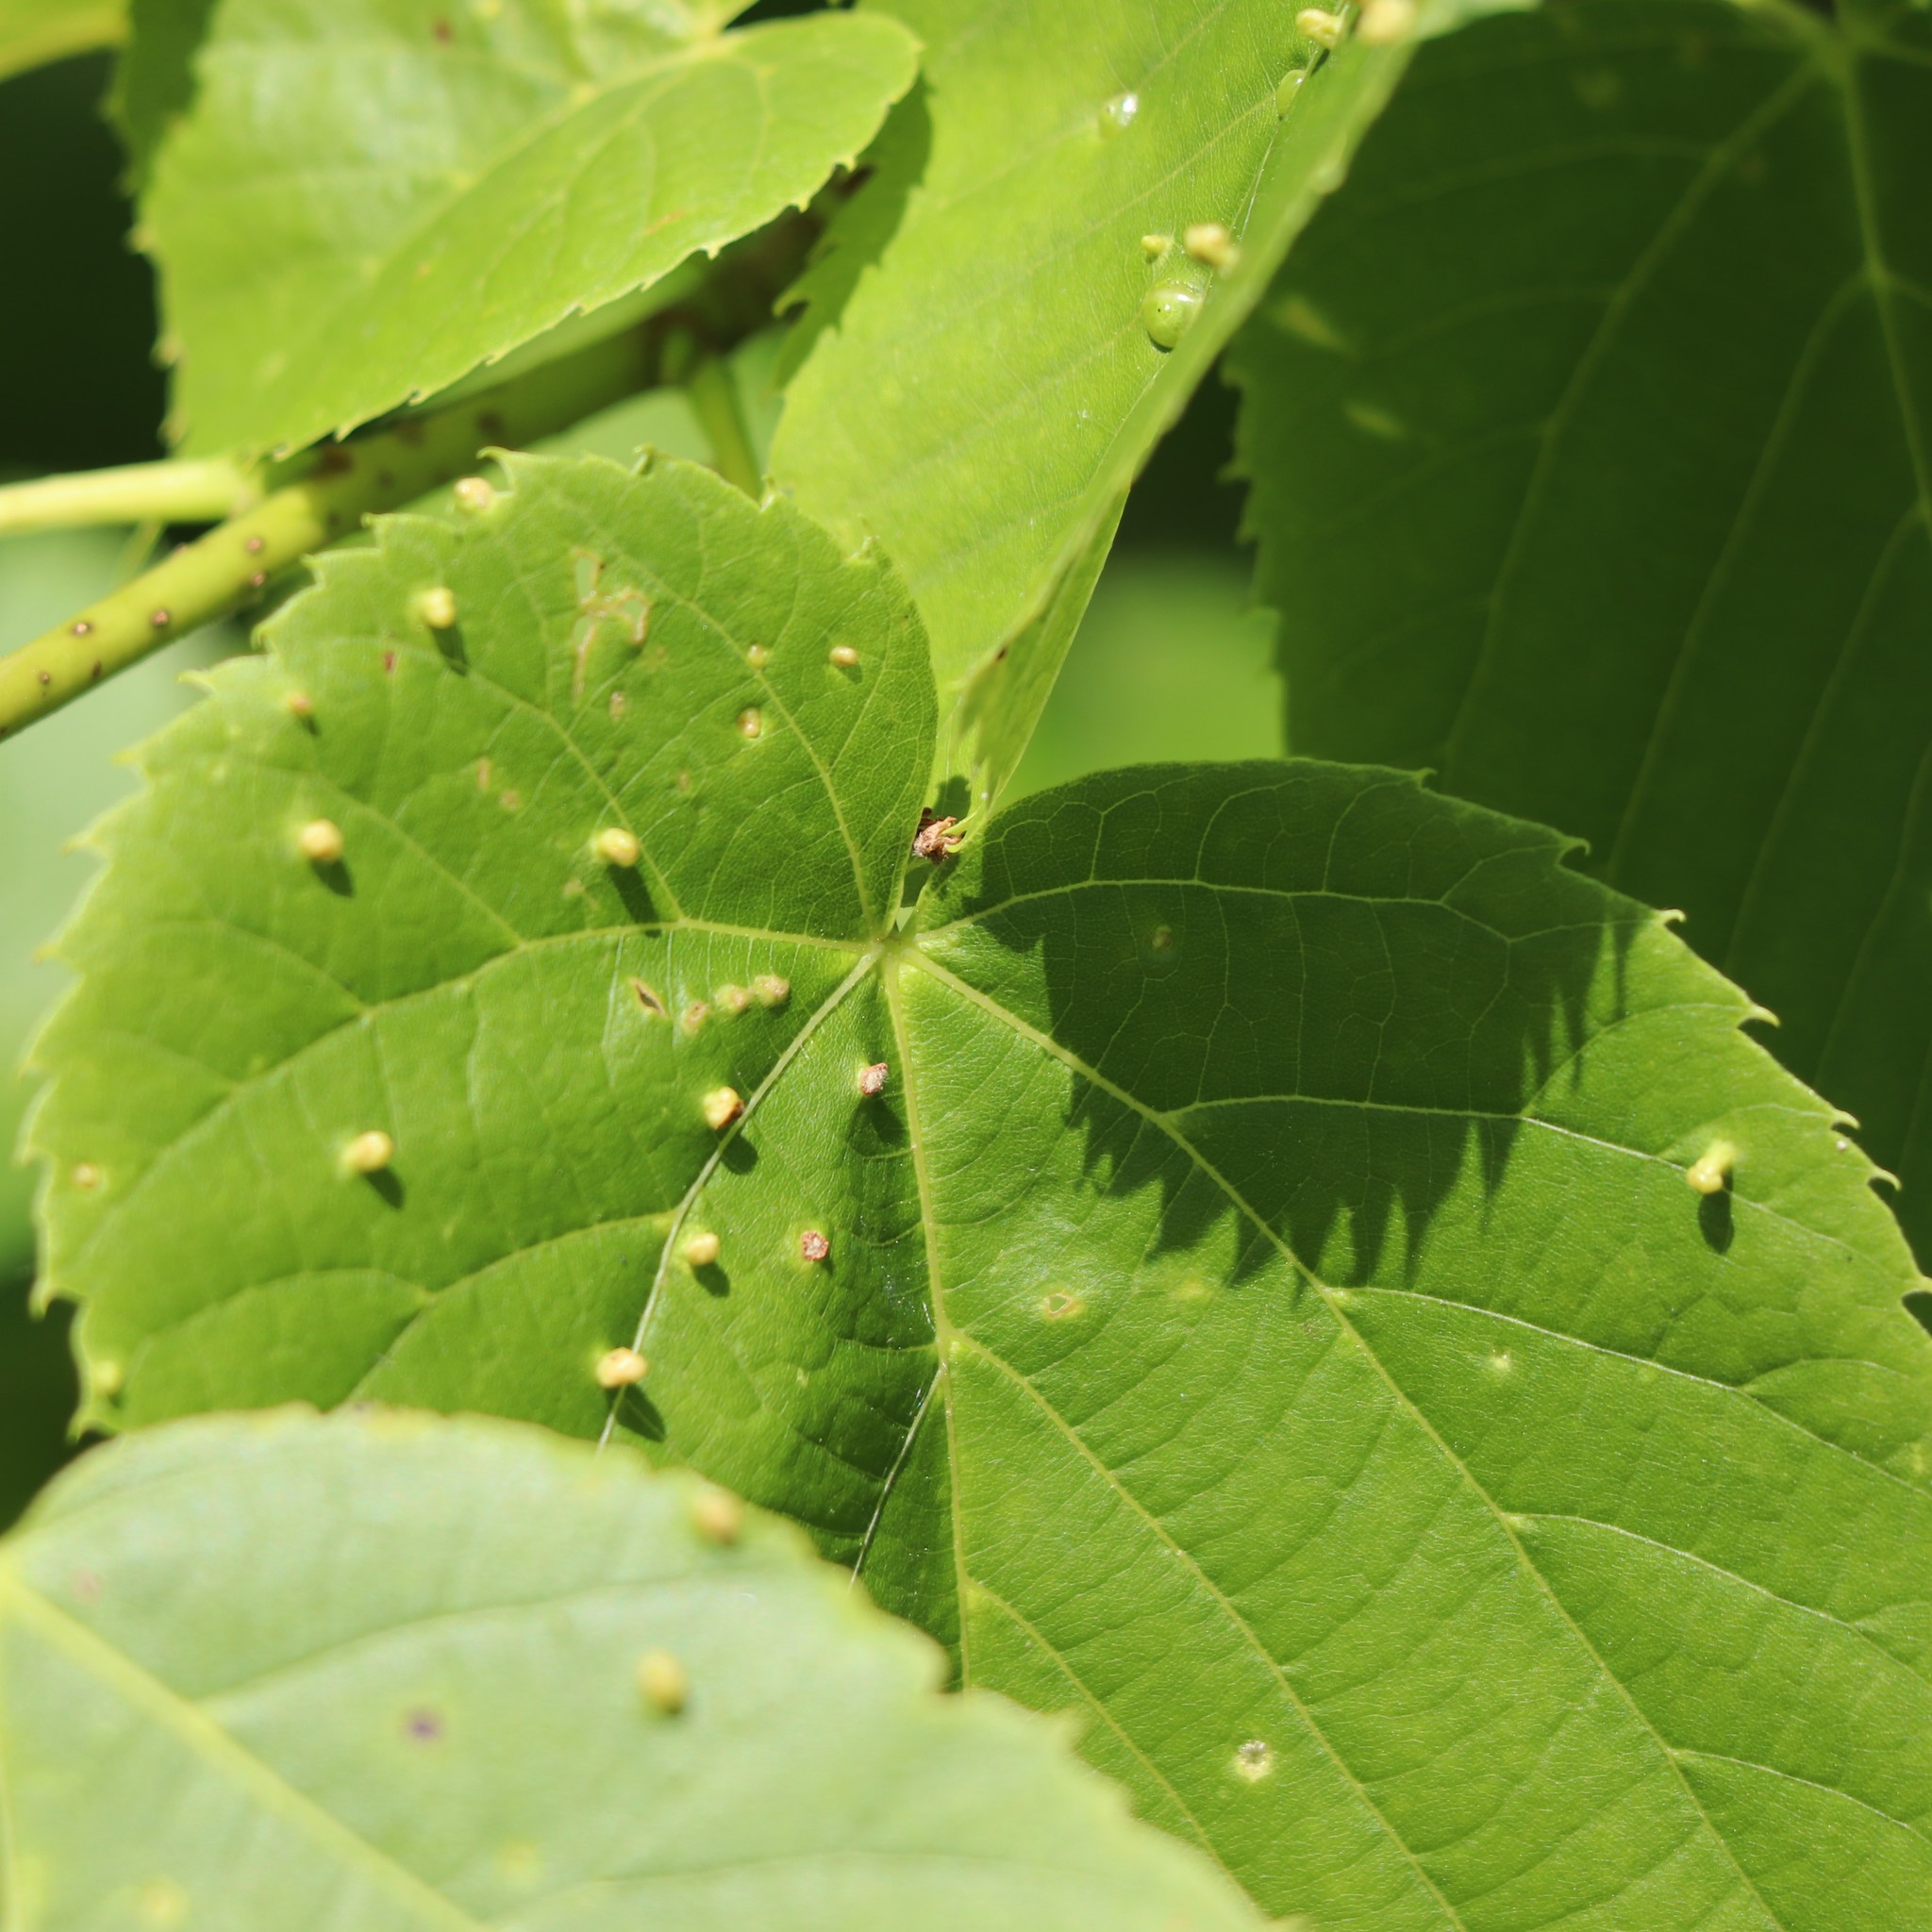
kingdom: Animalia
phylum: Arthropoda
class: Arachnida
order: Trombidiformes
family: Eriophyidae
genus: Eriophyes
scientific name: Eriophyes tiliae
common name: Red nail gall mite
